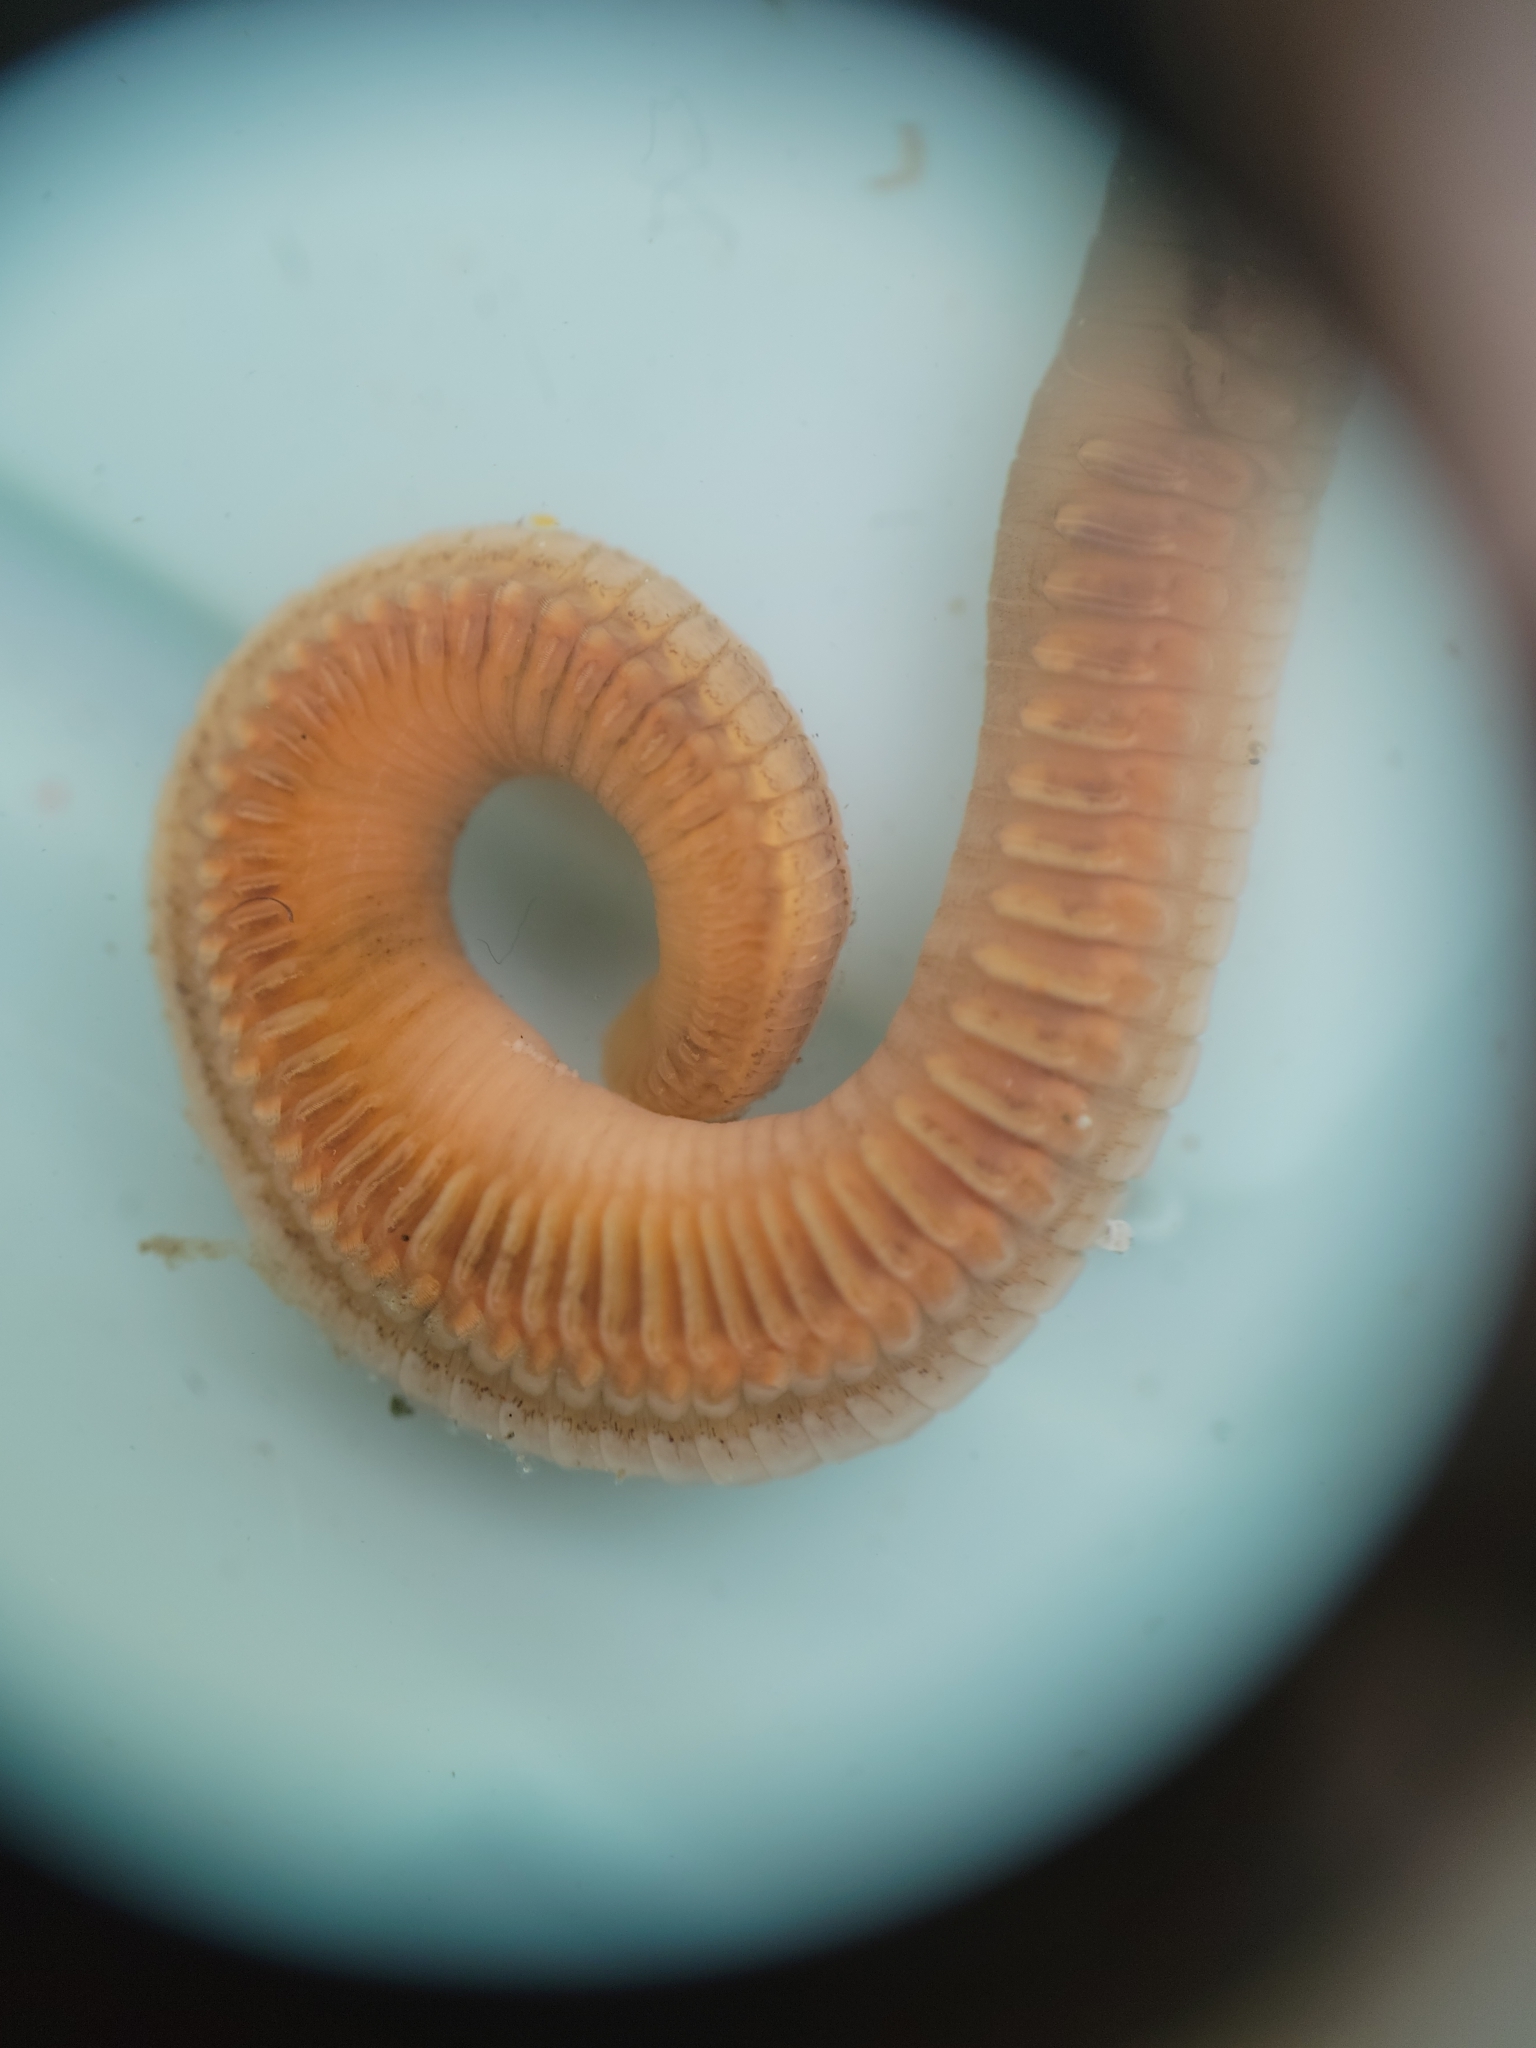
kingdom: Animalia
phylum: Annelida
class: Polychaeta
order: Sabellida
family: Sabellidae
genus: Schizobranchia
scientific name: Schizobranchia insignis
